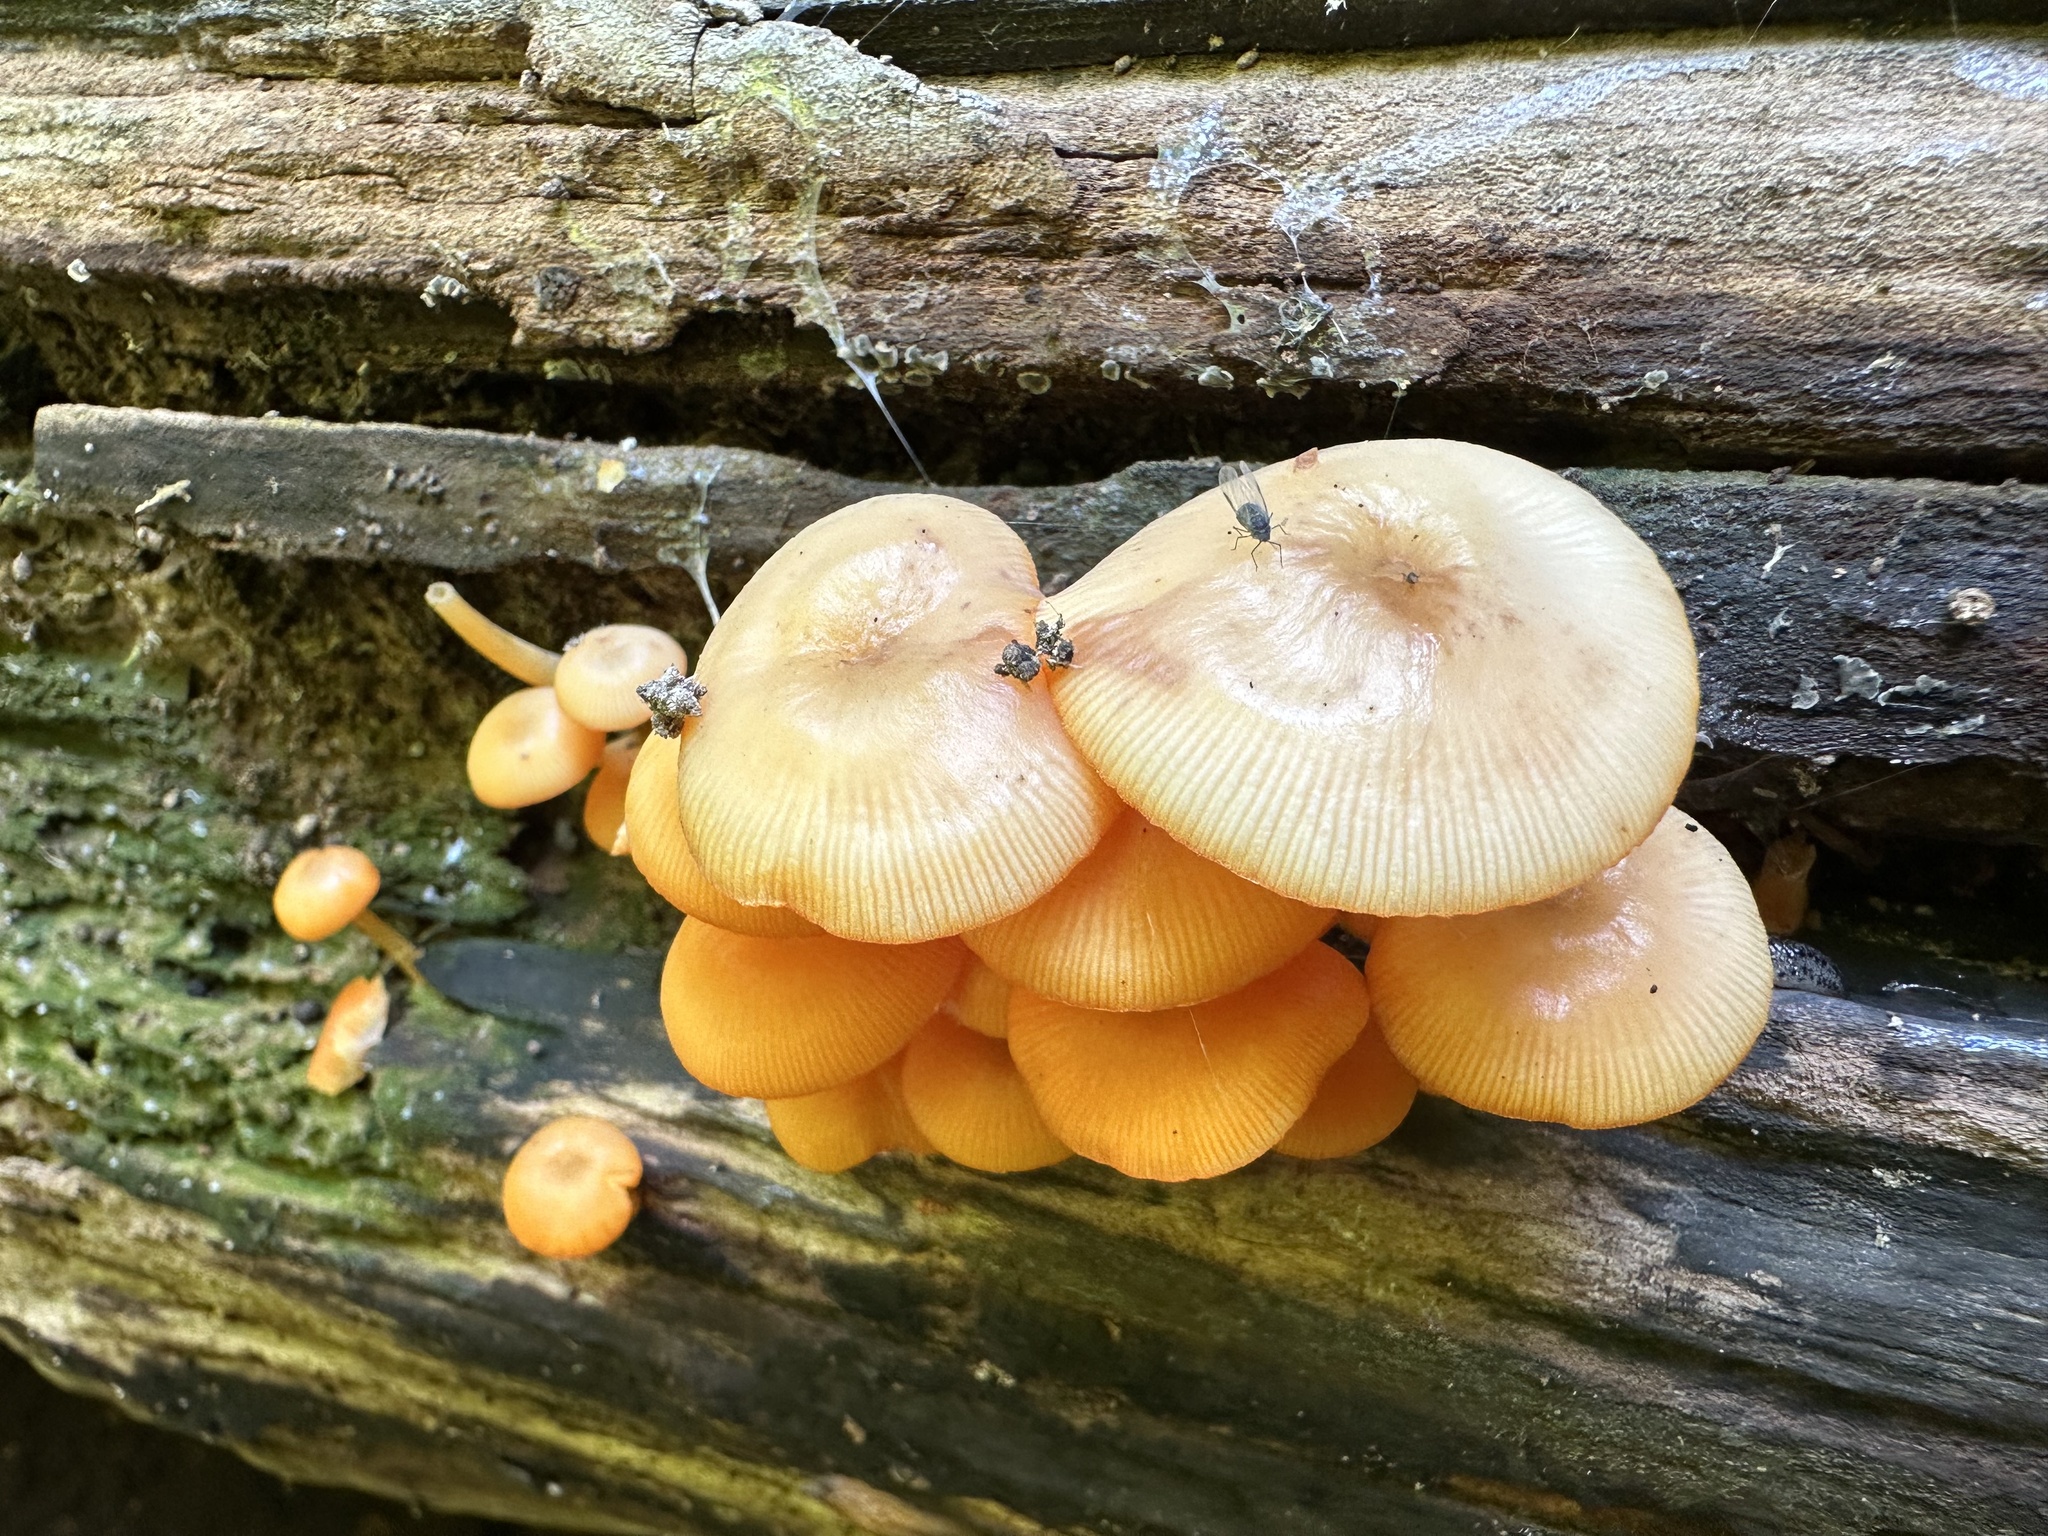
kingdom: Fungi
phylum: Basidiomycota
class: Agaricomycetes
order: Agaricales
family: Mycenaceae
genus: Mycena
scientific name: Mycena leaiana
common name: Orange mycena
